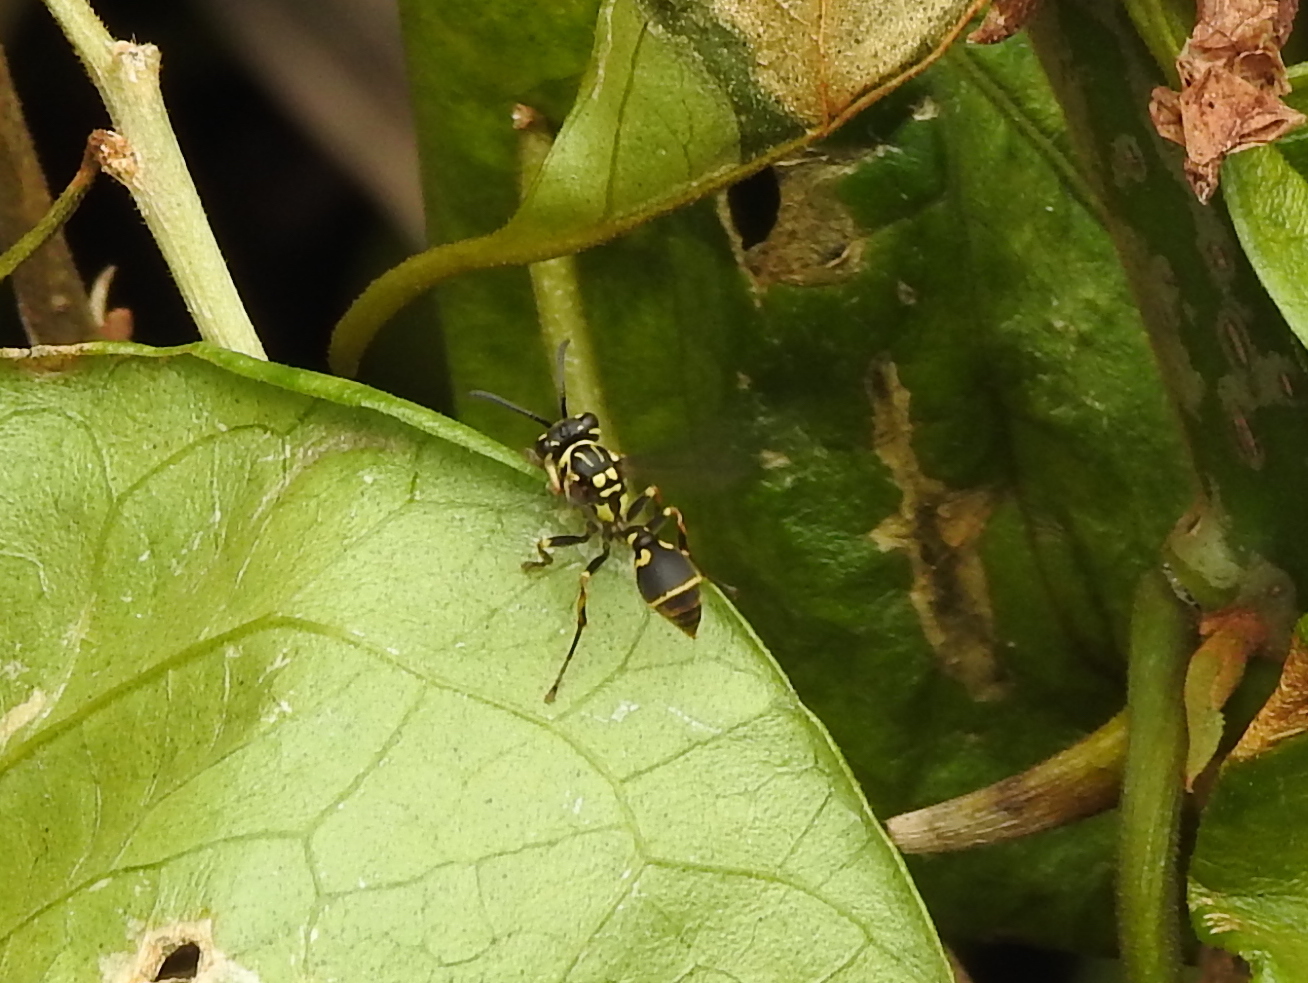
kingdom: Animalia
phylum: Arthropoda
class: Insecta
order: Hymenoptera
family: Vespidae
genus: Ropalidia
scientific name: Ropalidia flavopicta
